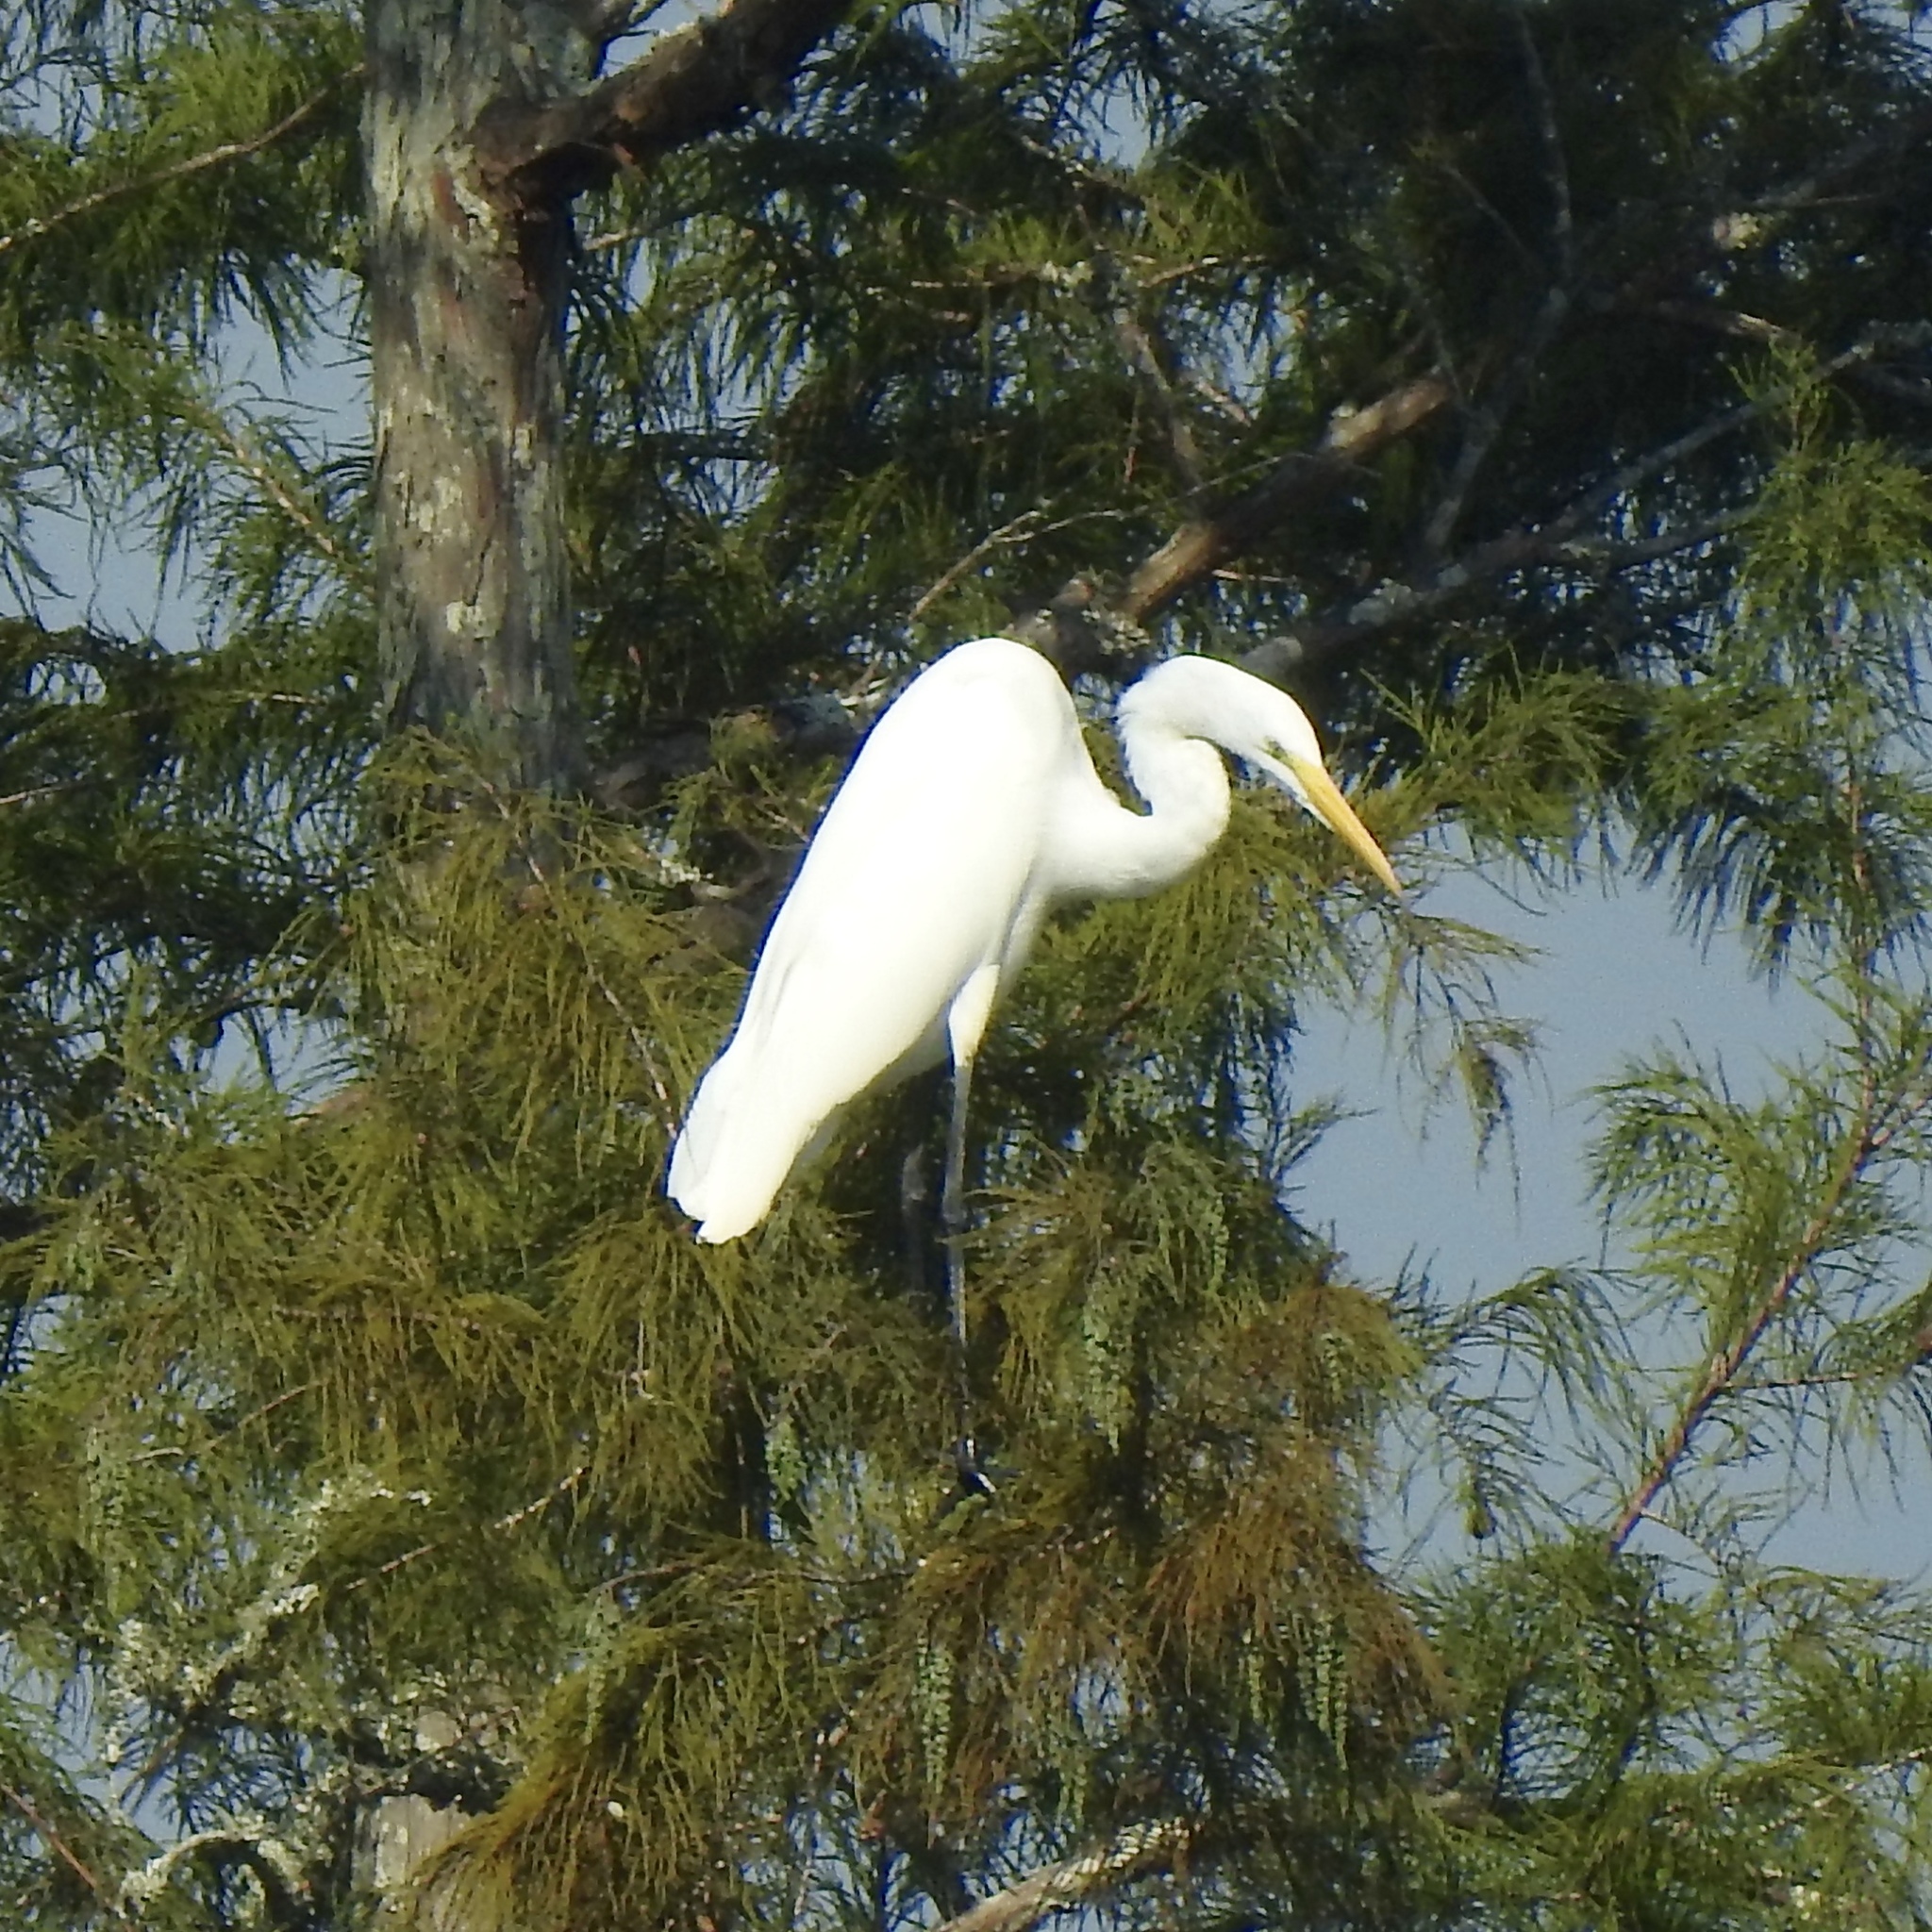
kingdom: Animalia
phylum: Chordata
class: Aves
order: Pelecaniformes
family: Ardeidae
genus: Ardea
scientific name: Ardea alba
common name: Great egret
